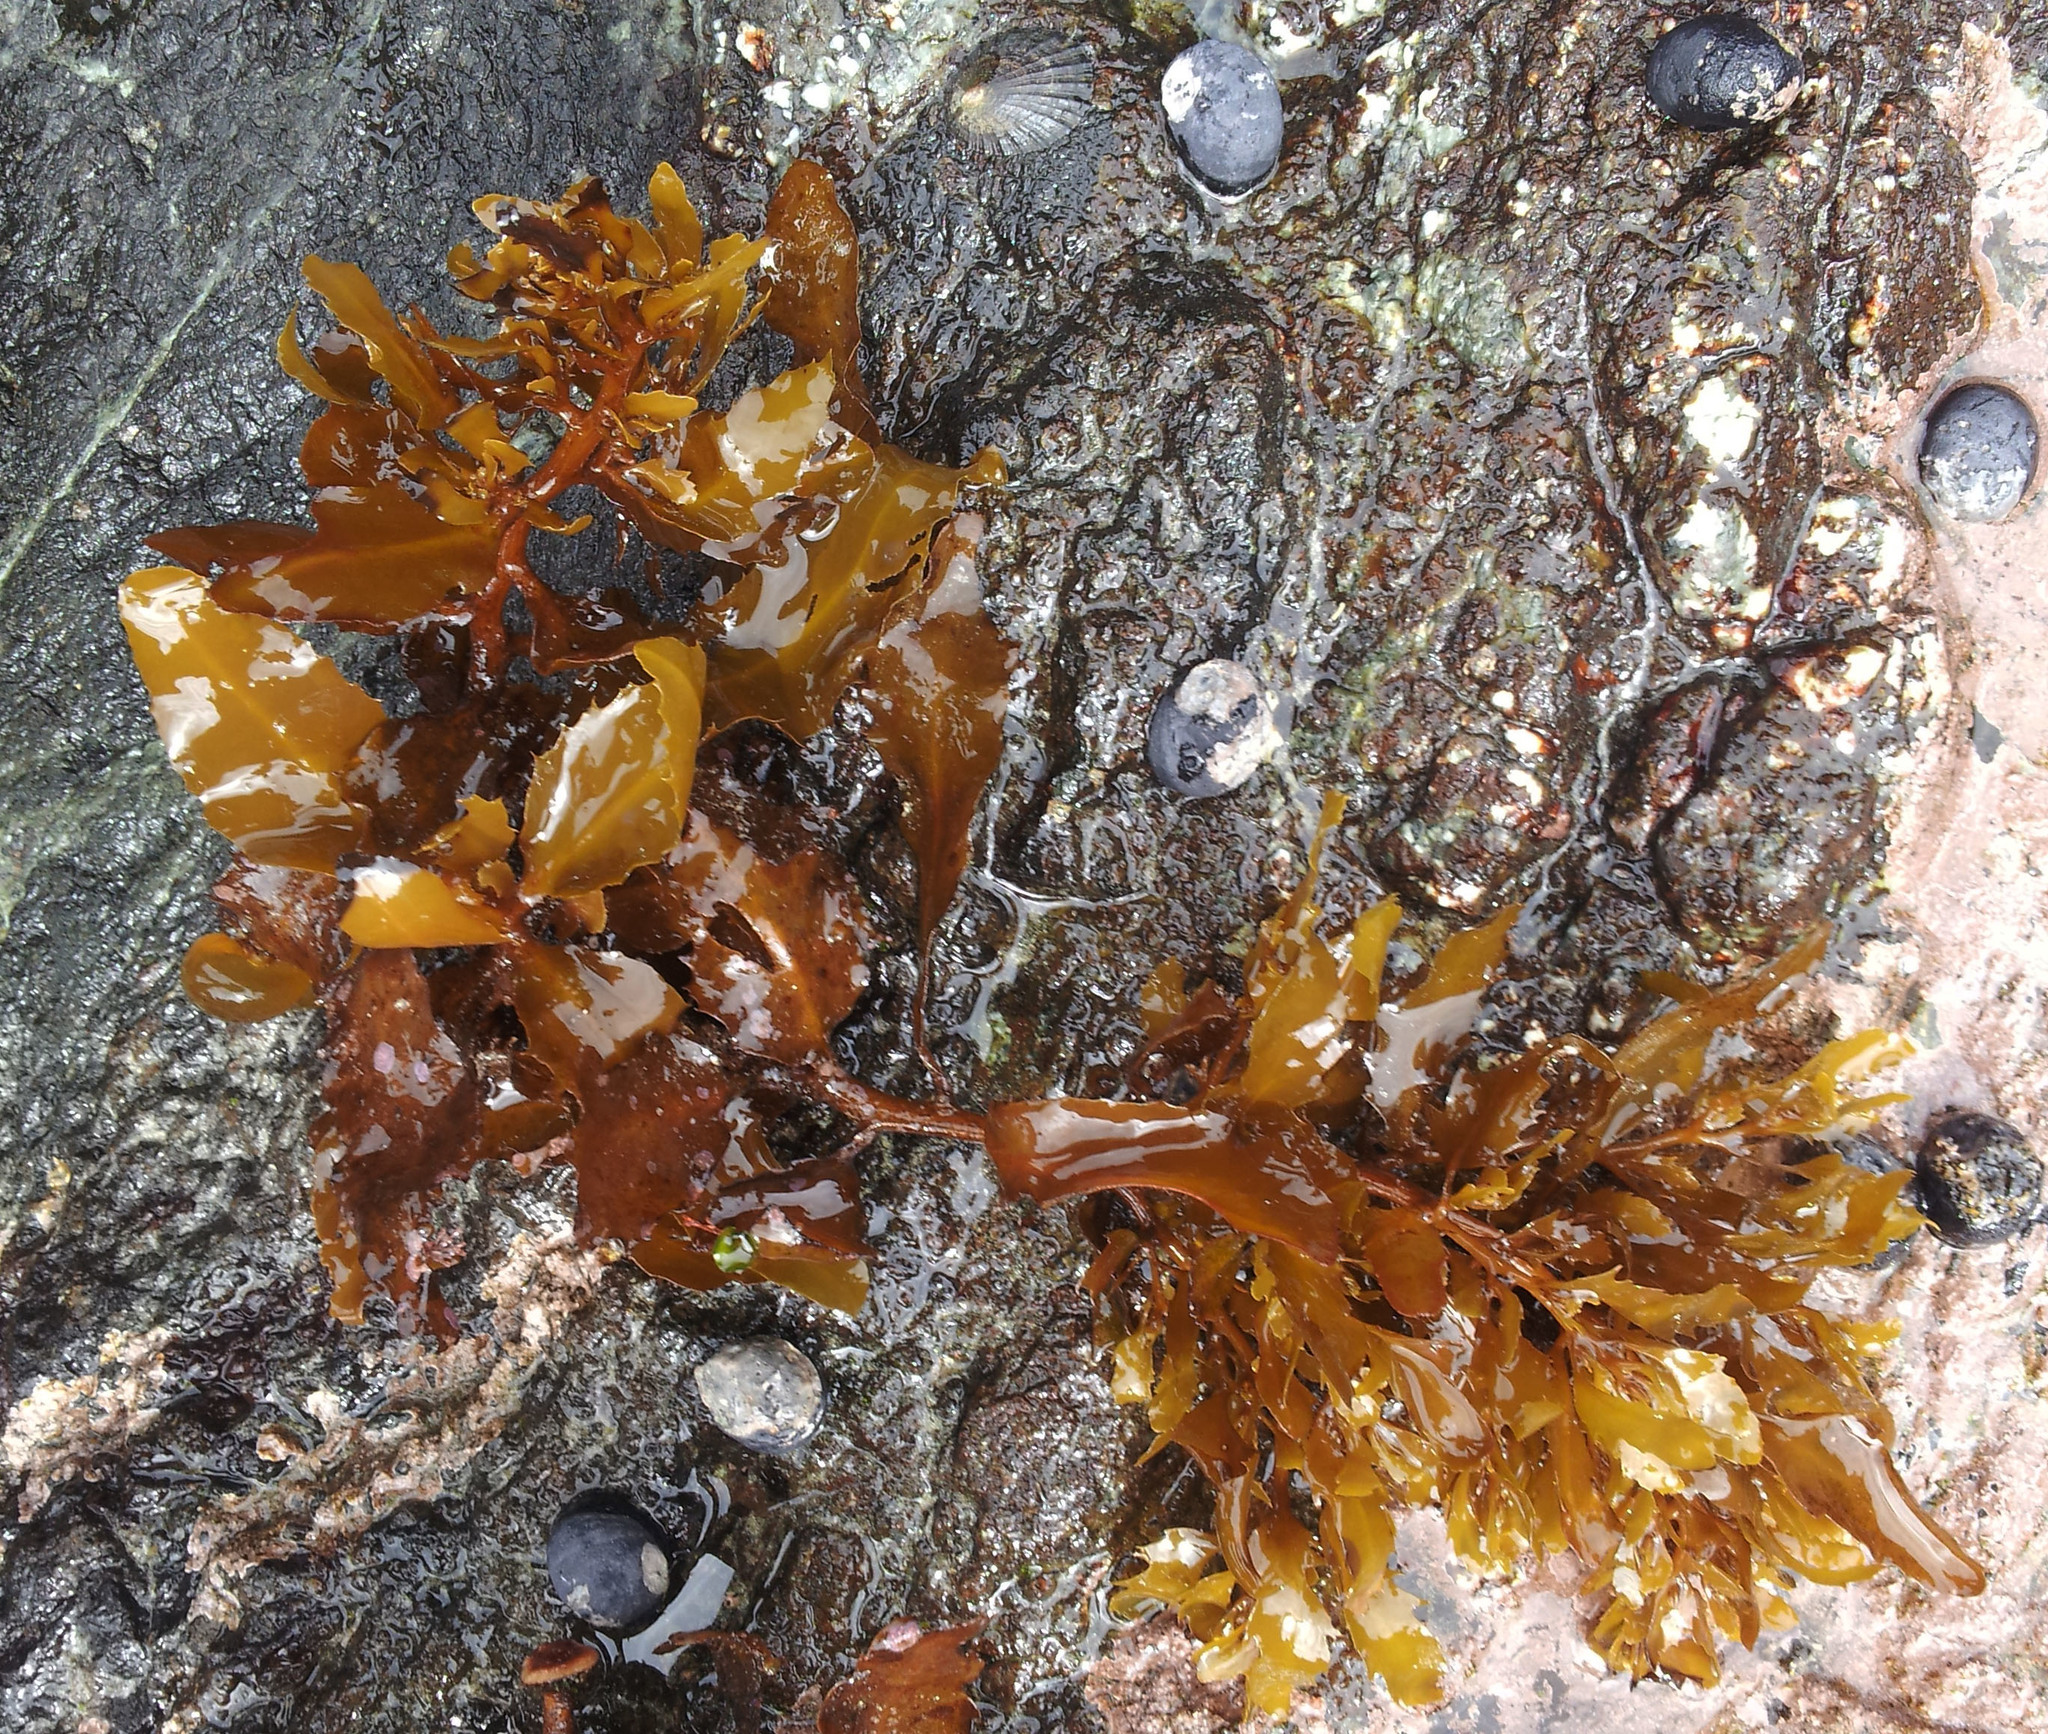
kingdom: Chromista
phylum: Ochrophyta
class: Phaeophyceae
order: Fucales
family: Sargassaceae
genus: Sargassum
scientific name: Sargassum sinclairii
